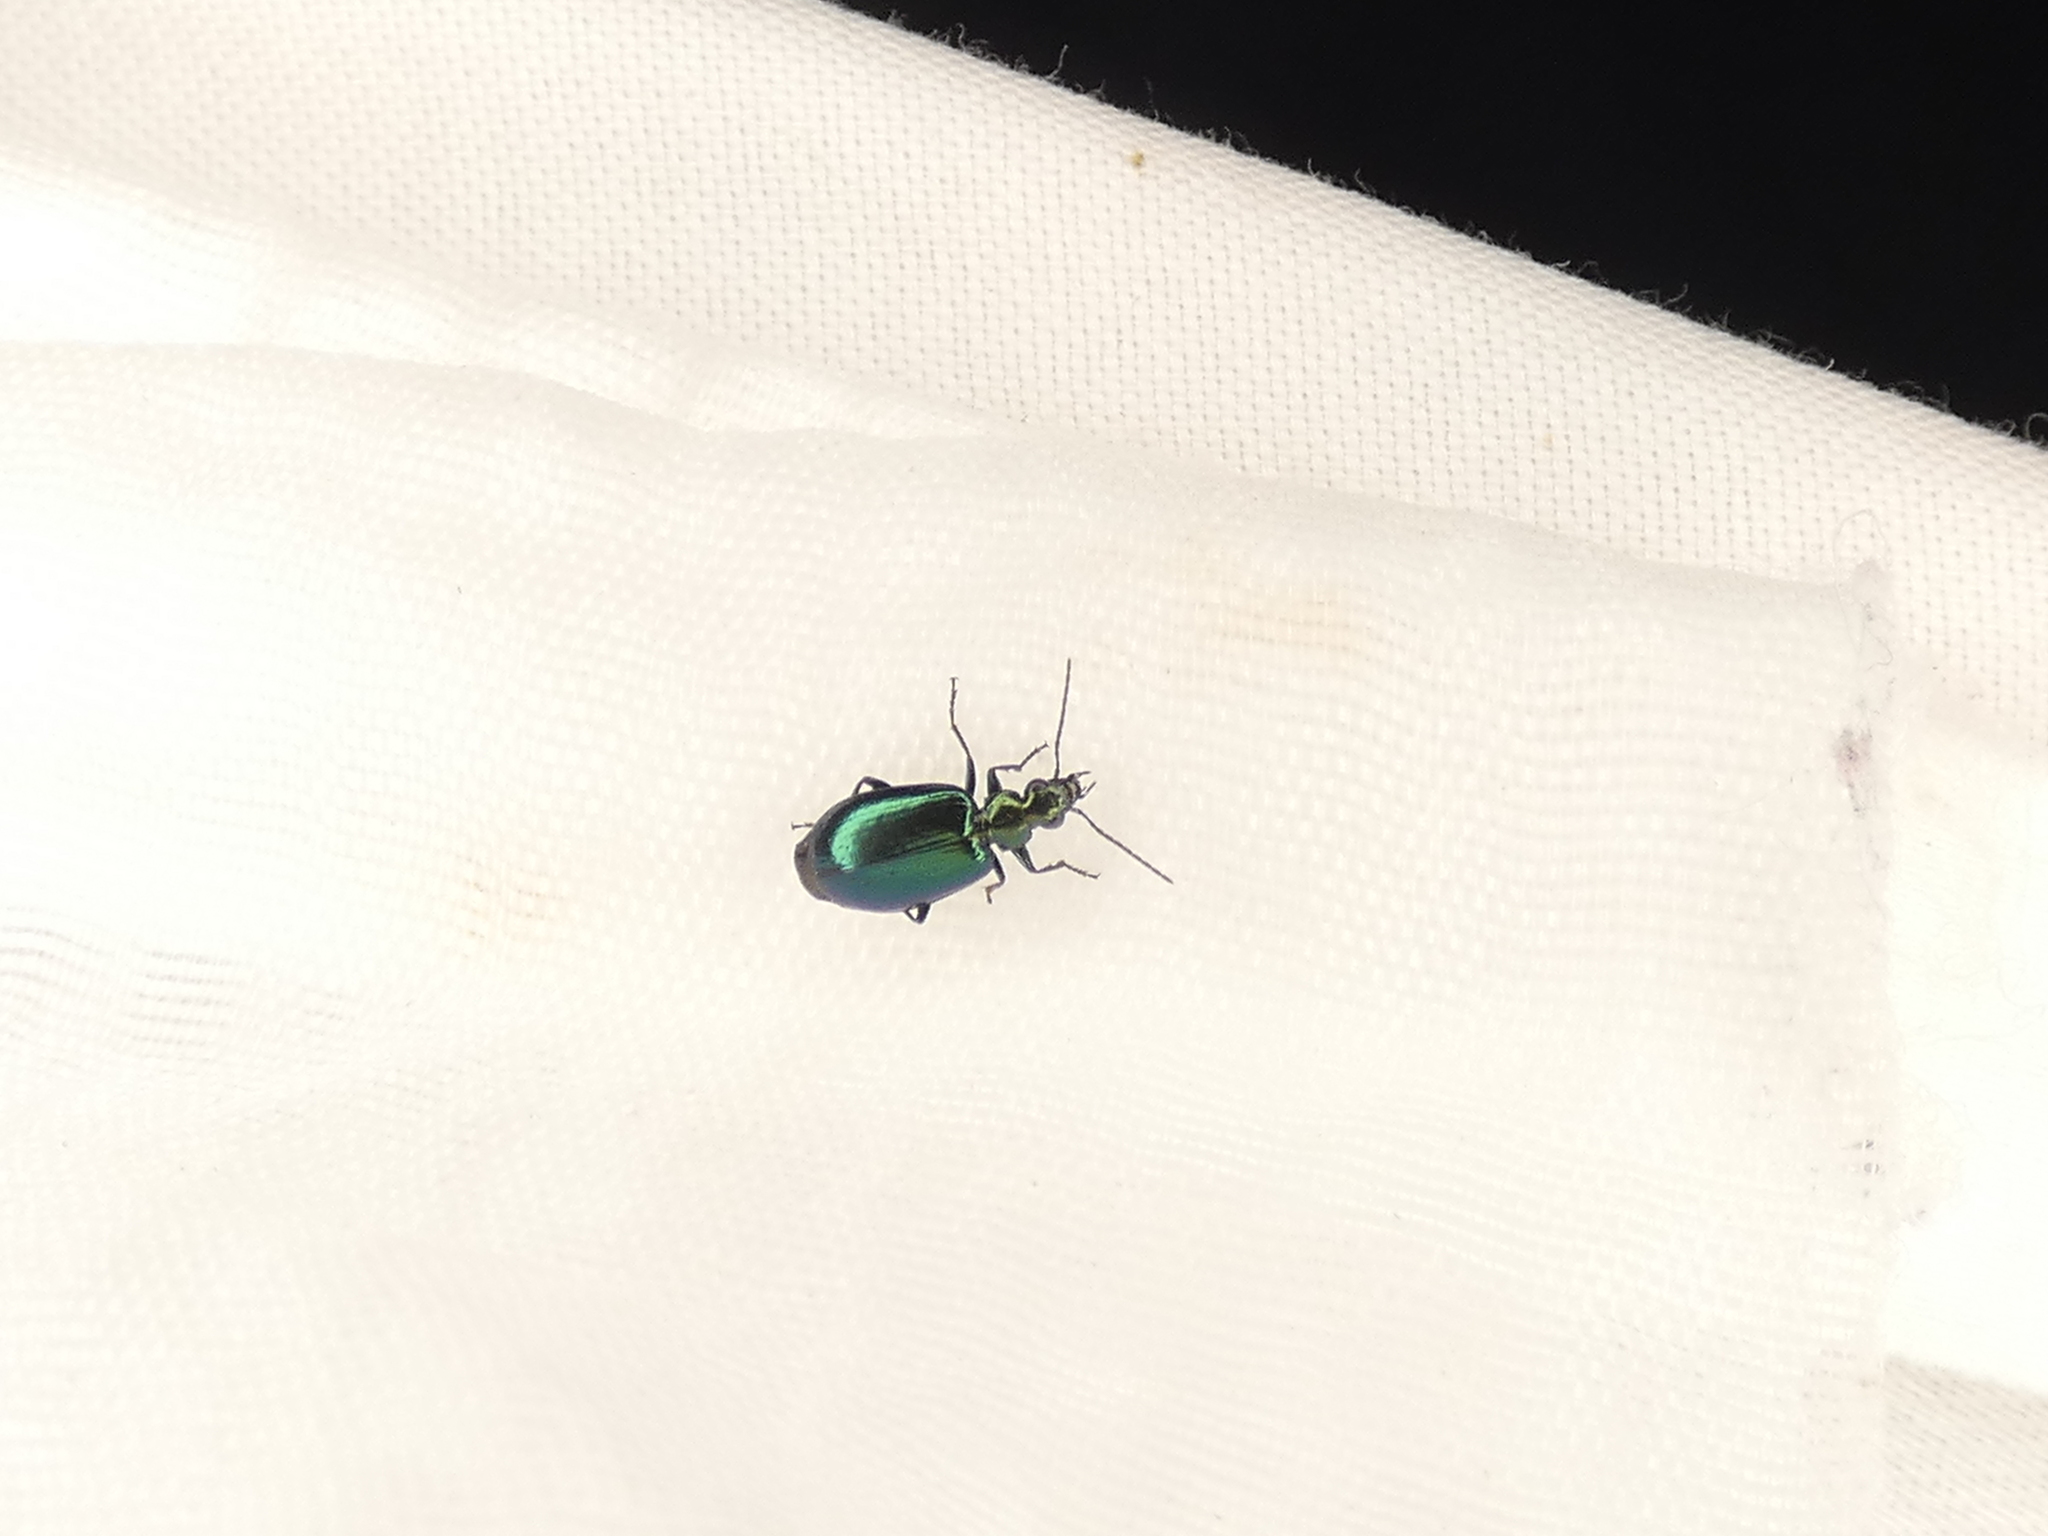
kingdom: Animalia
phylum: Arthropoda
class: Insecta
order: Coleoptera
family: Carabidae
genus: Lebia
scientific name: Lebia viridis
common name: Flower lebia beetle
